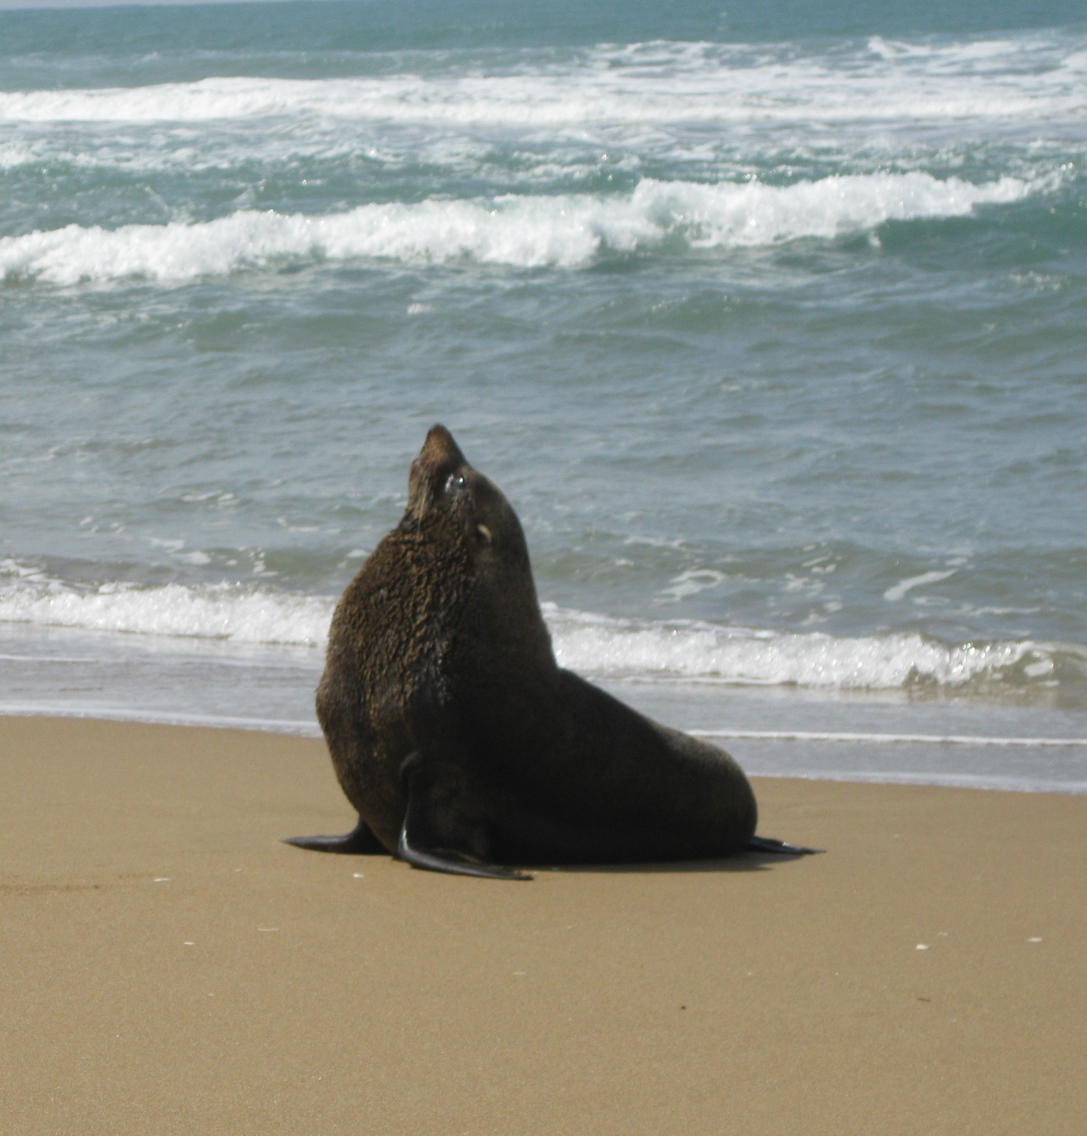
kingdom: Animalia
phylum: Chordata
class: Mammalia
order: Carnivora
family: Otariidae
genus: Arctocephalus
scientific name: Arctocephalus forsteri
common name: New zealand fur seal
